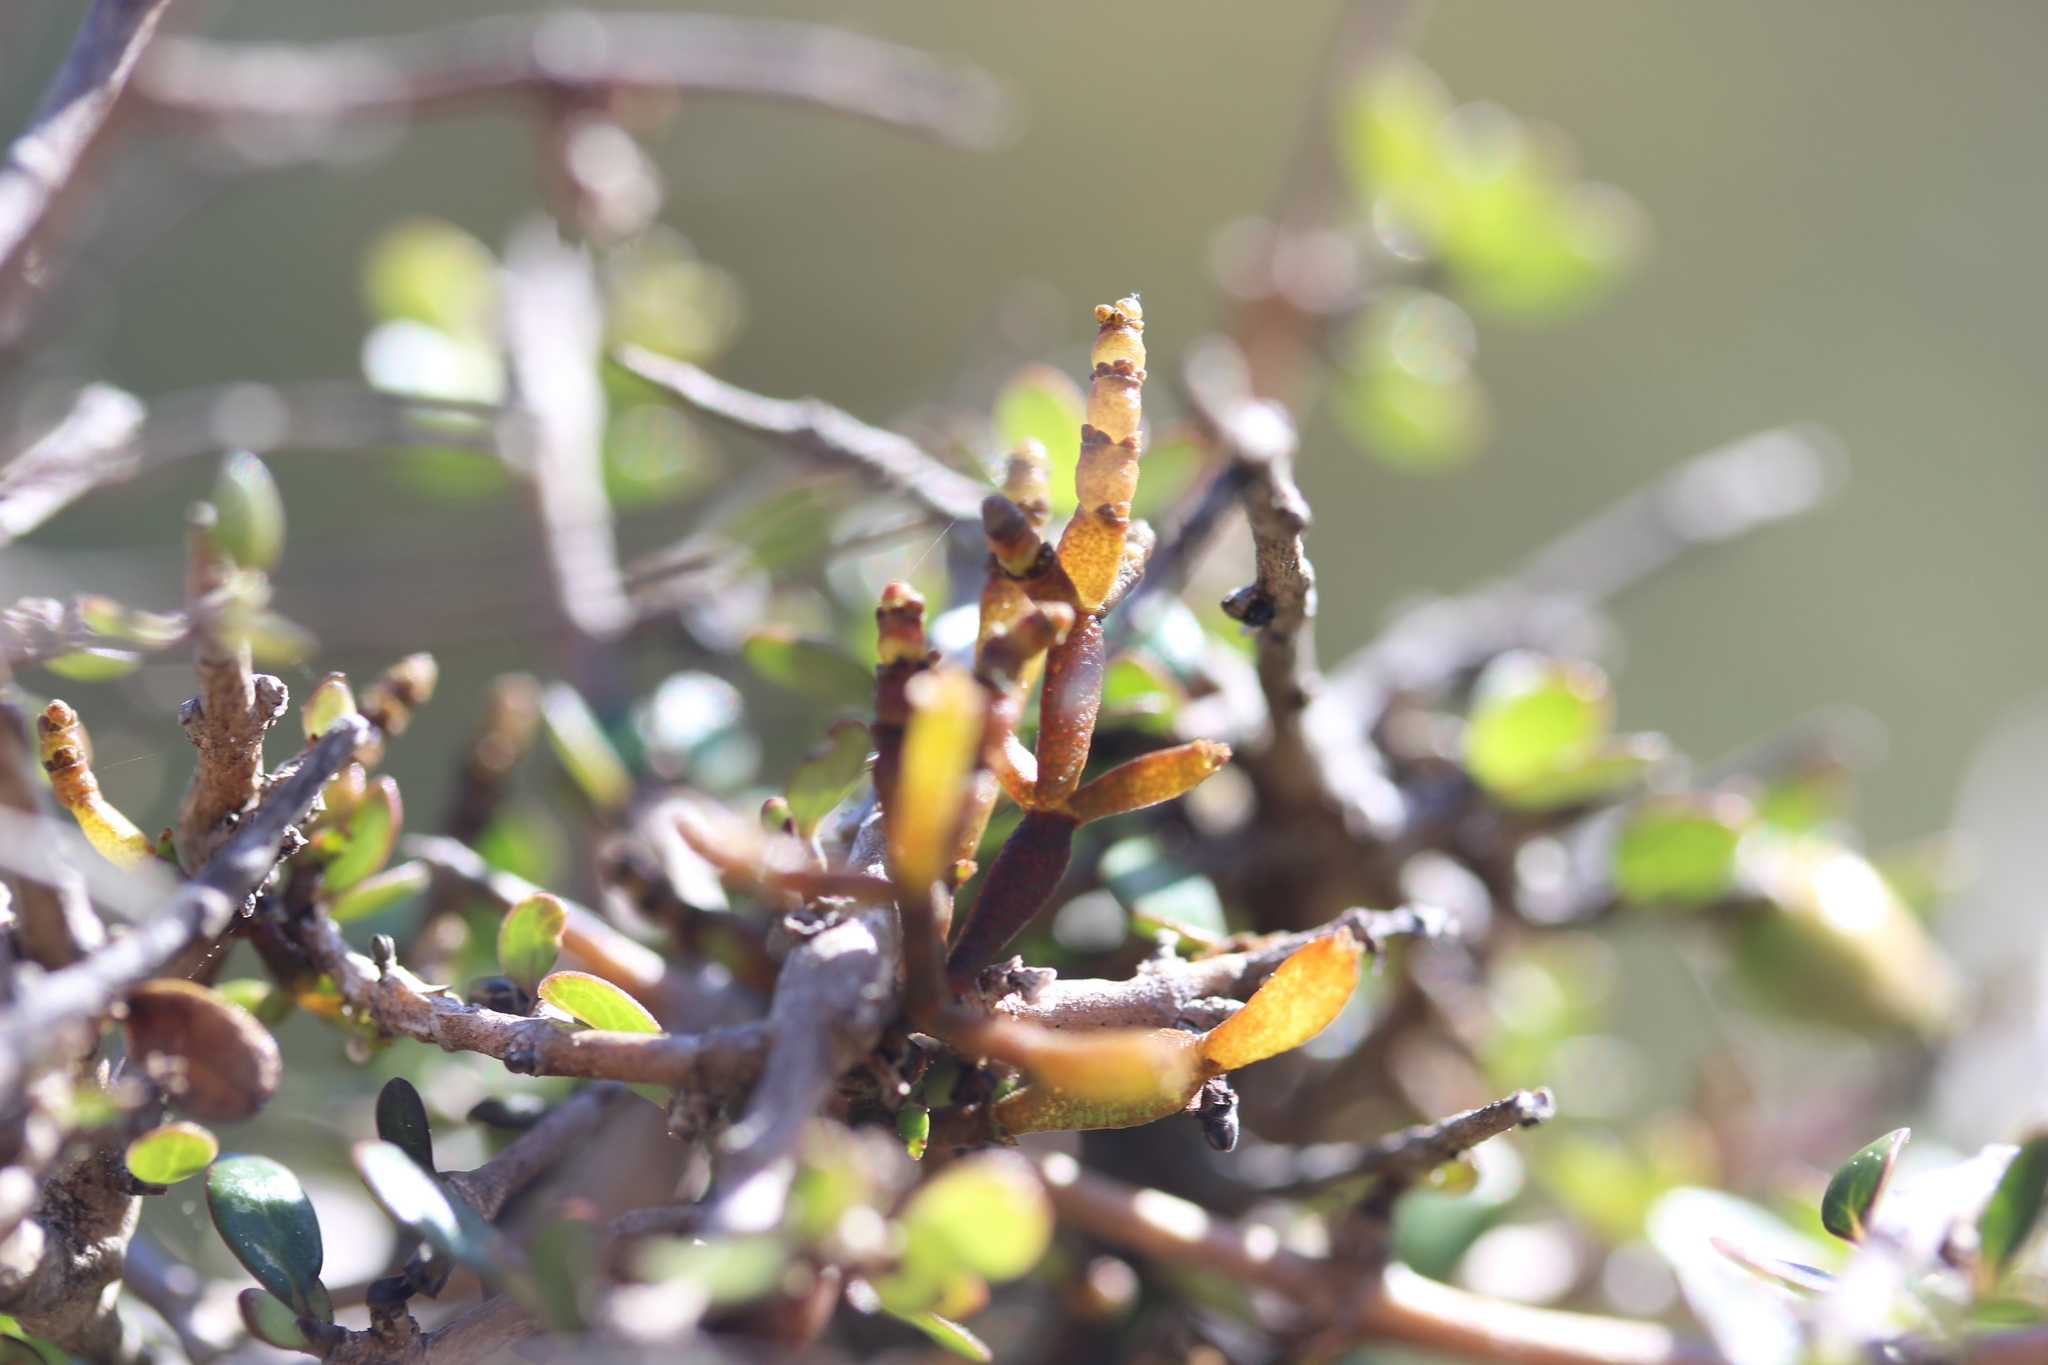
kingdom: Plantae
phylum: Tracheophyta
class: Magnoliopsida
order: Santalales
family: Viscaceae
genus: Korthalsella
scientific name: Korthalsella clavata
